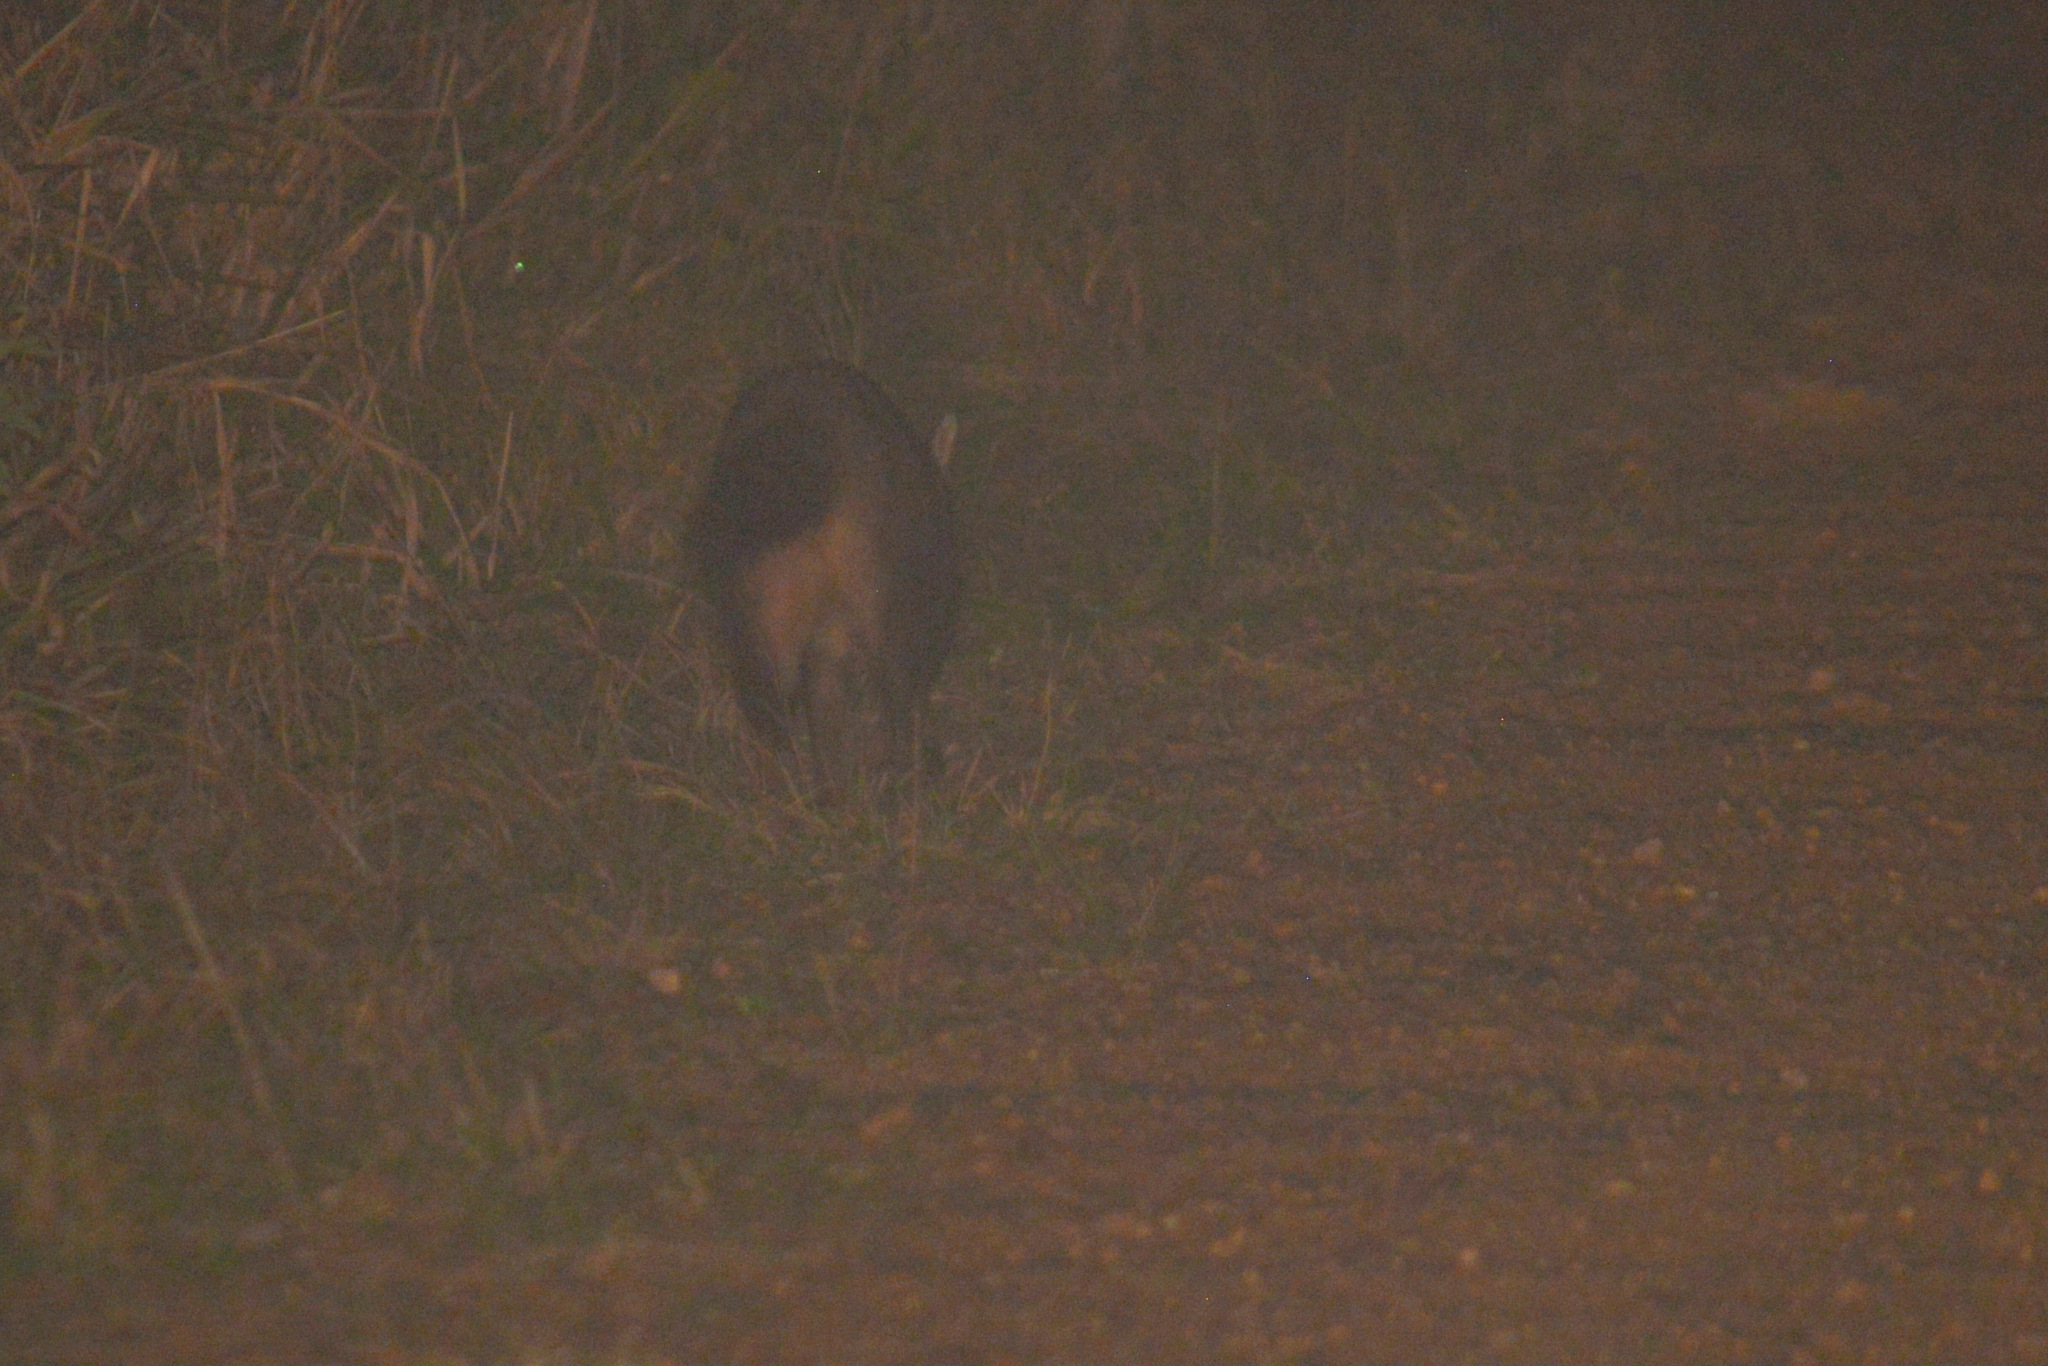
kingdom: Animalia
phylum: Chordata
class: Mammalia
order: Carnivora
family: Procyonidae
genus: Procyon
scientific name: Procyon cancrivorus
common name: Crab-eating raccoon
